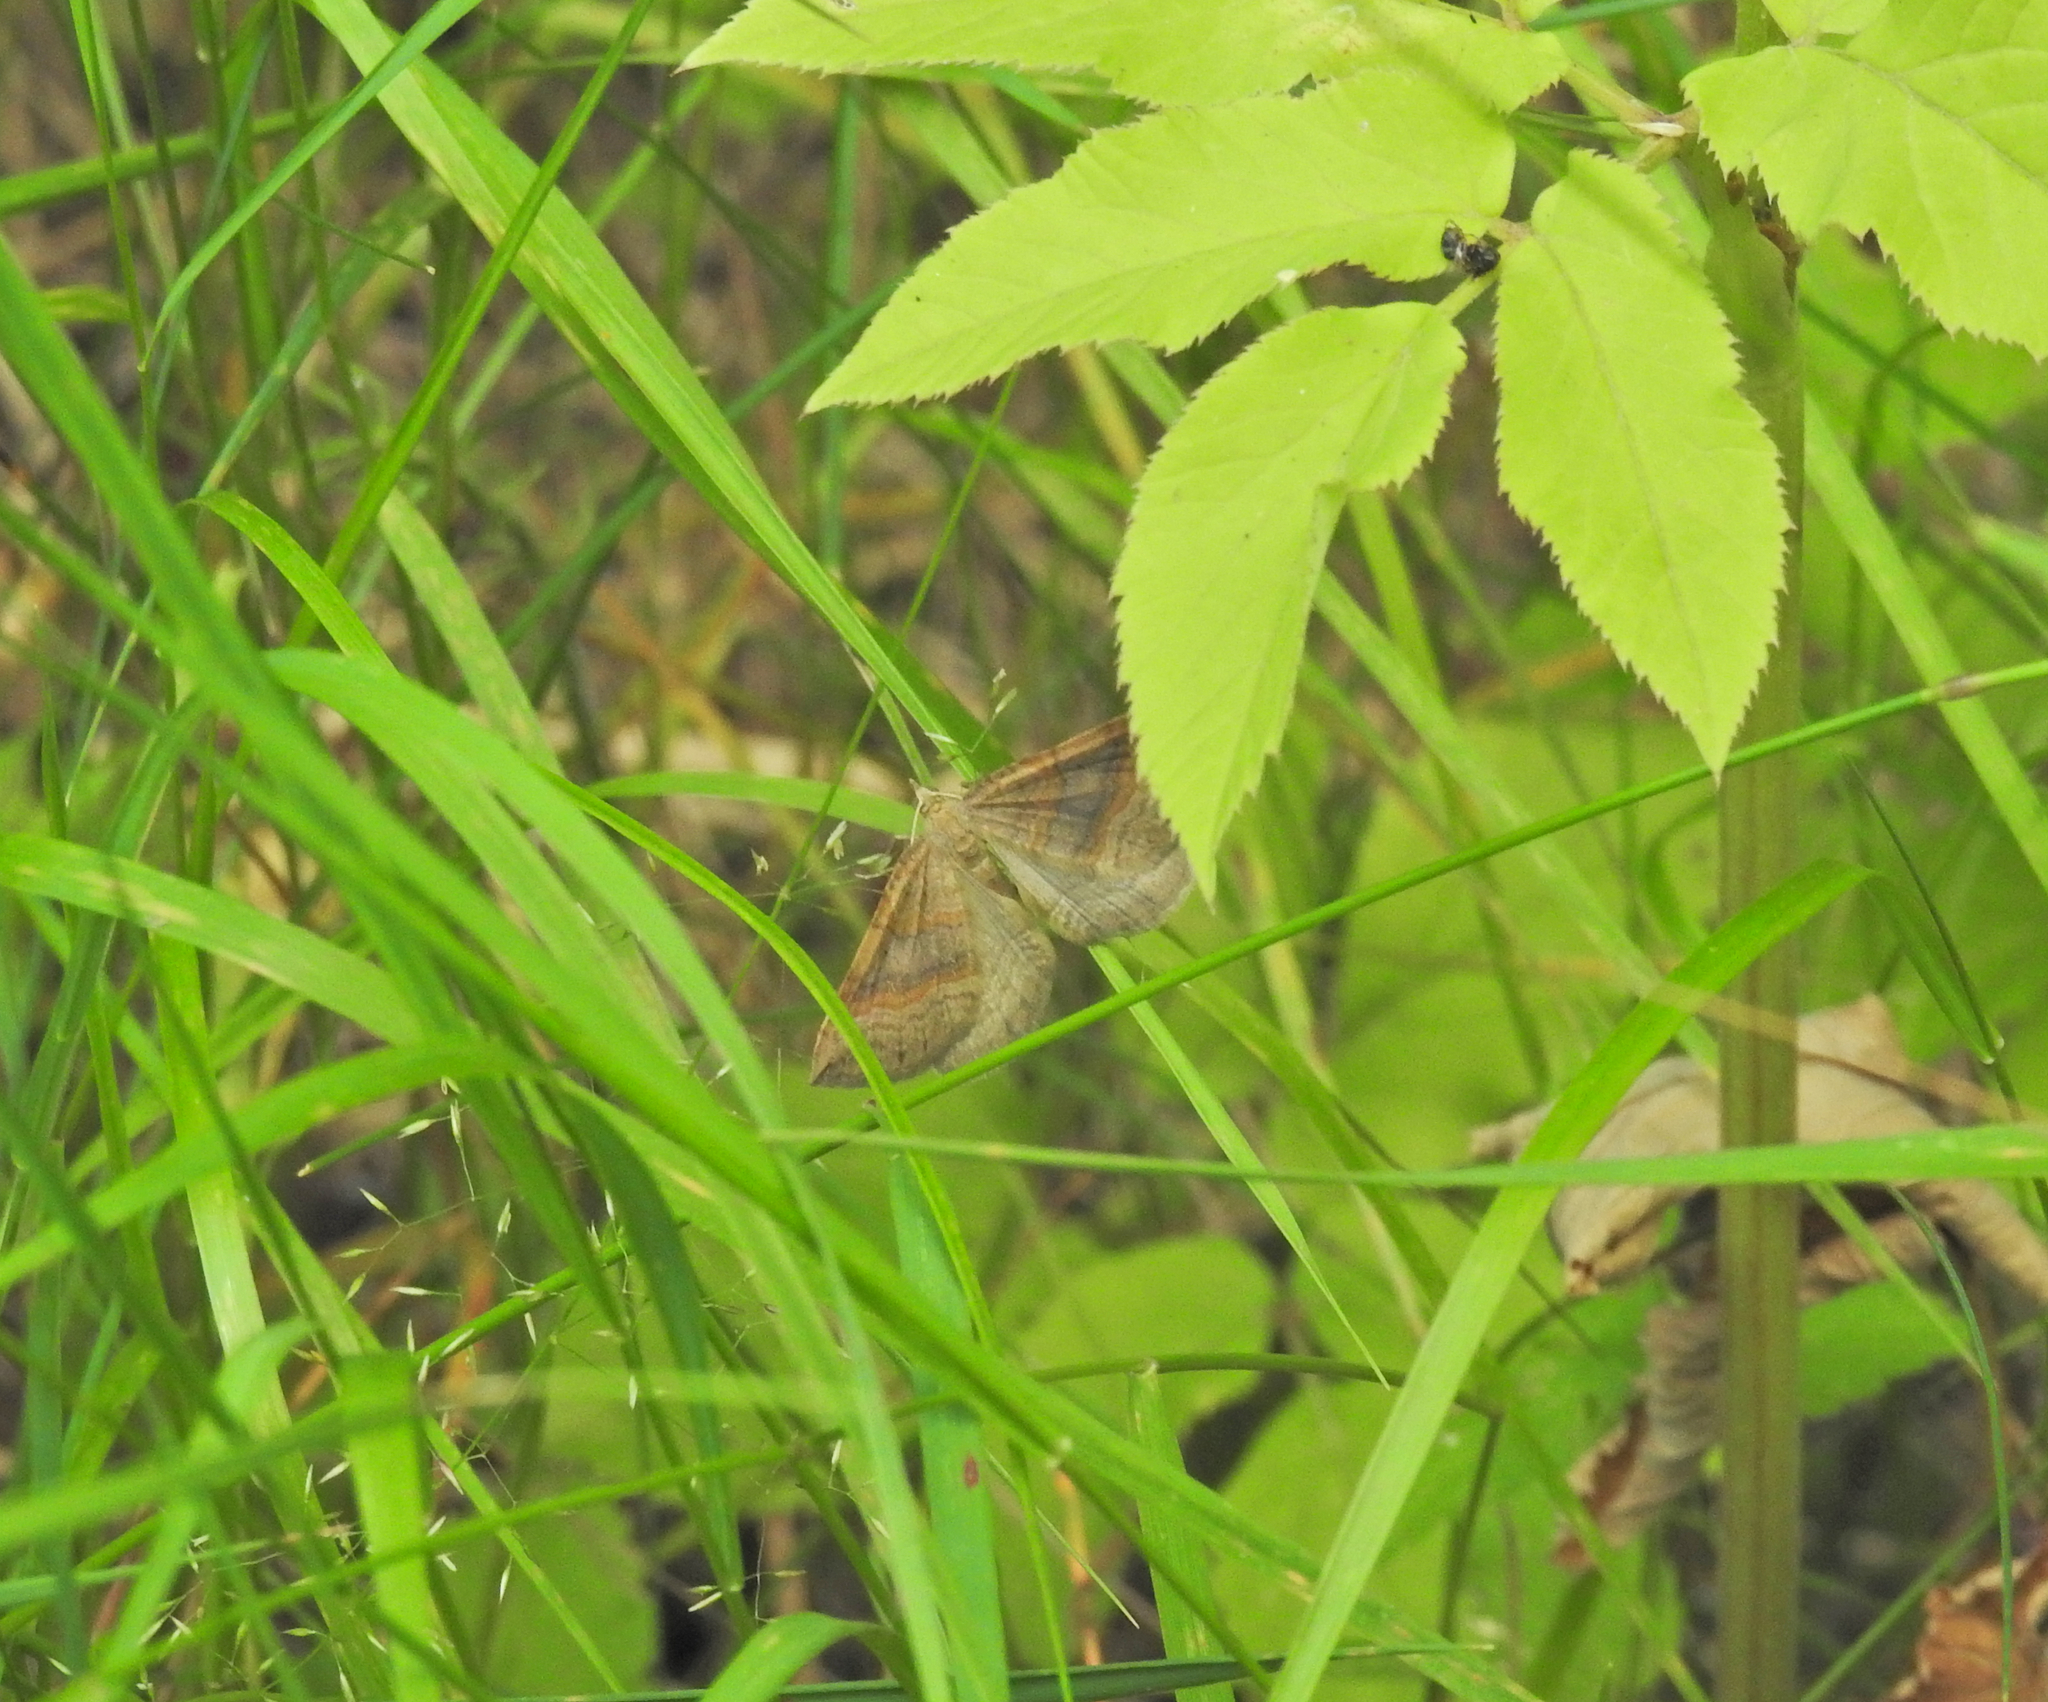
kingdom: Animalia
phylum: Arthropoda
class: Insecta
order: Lepidoptera
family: Geometridae
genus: Scotopteryx
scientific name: Scotopteryx chenopodiata
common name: Shaded broad-bar
